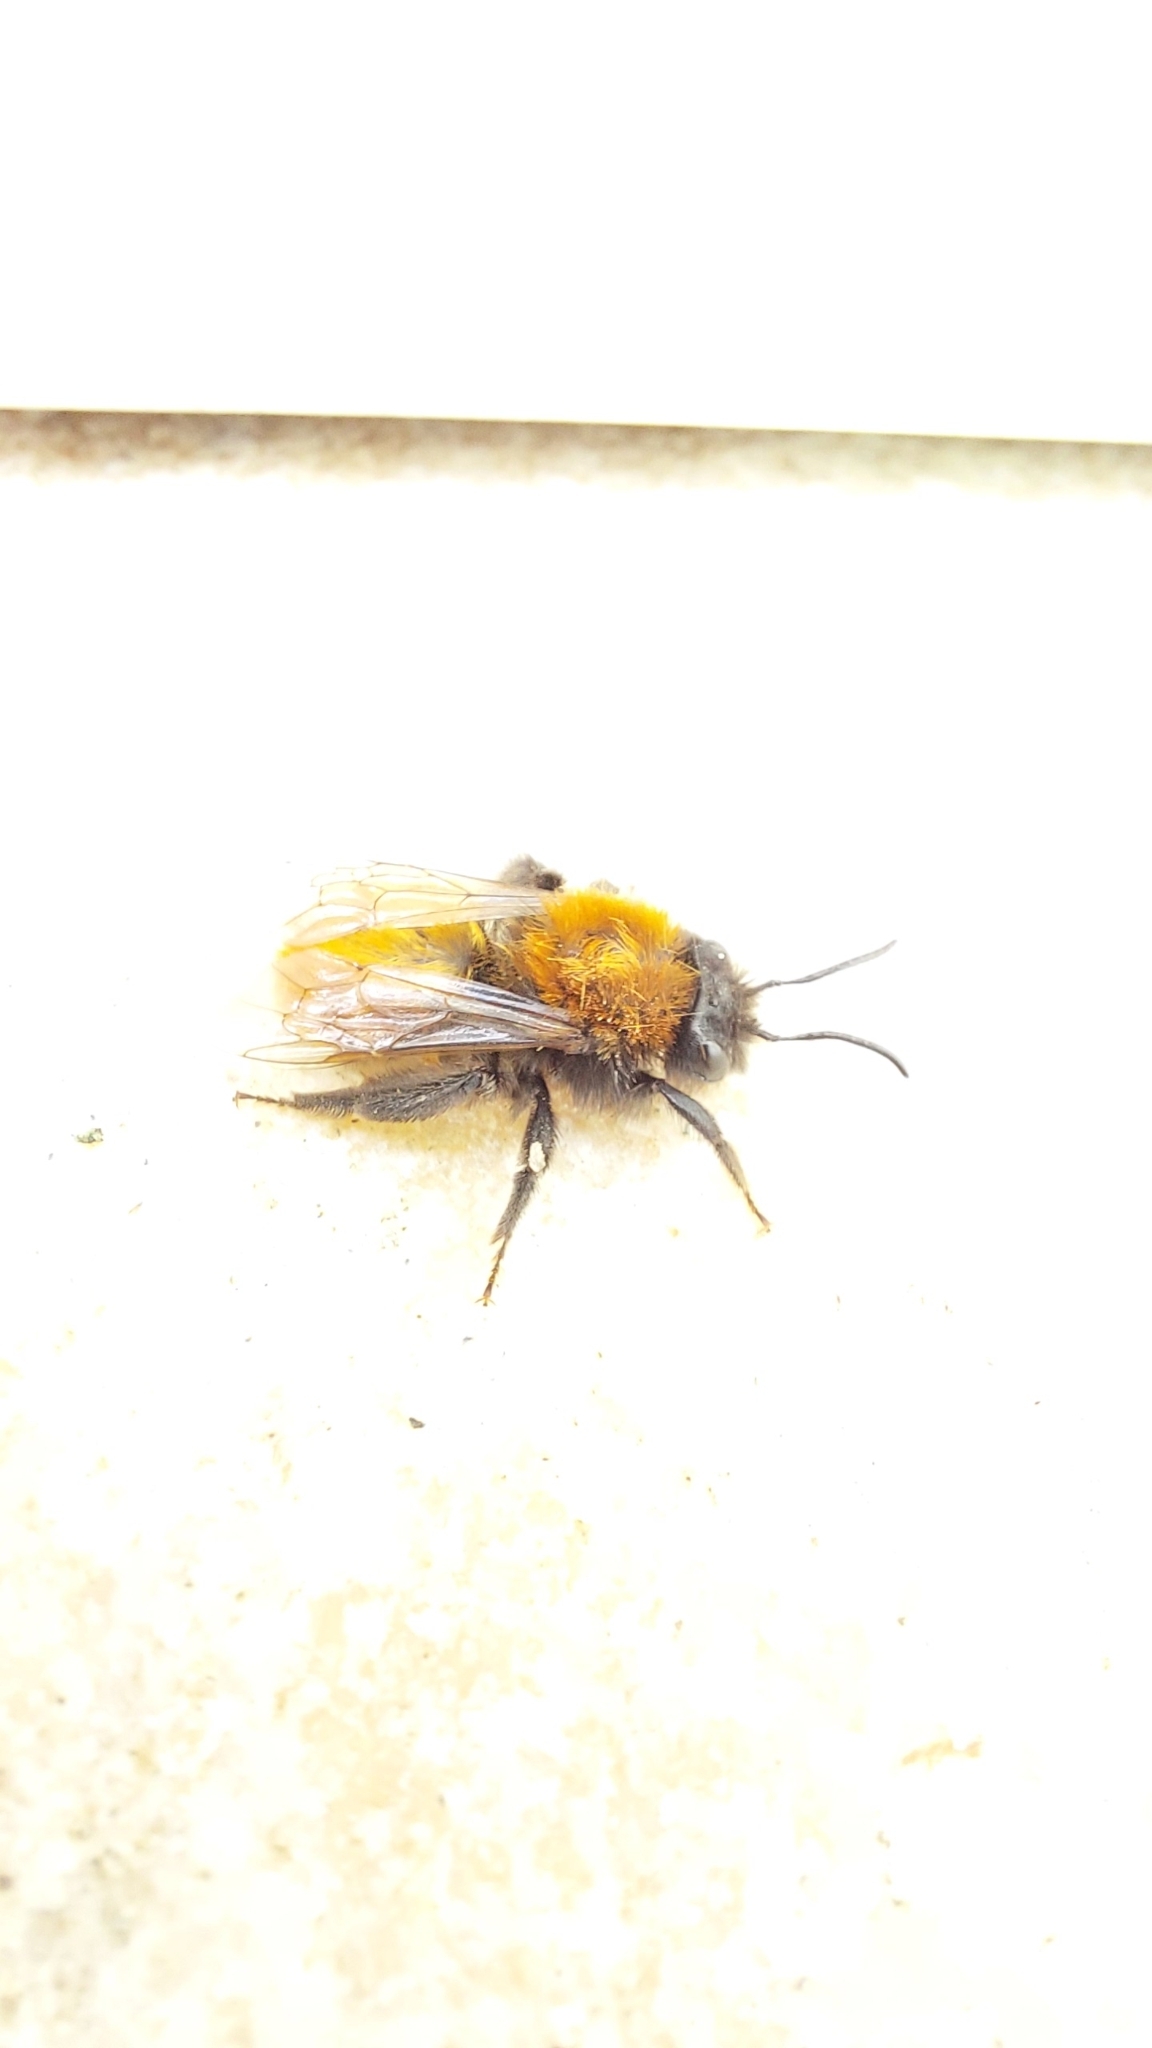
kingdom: Animalia
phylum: Arthropoda
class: Insecta
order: Hymenoptera
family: Andrenidae
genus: Andrena
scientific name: Andrena fulva
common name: Tawny mining bee
